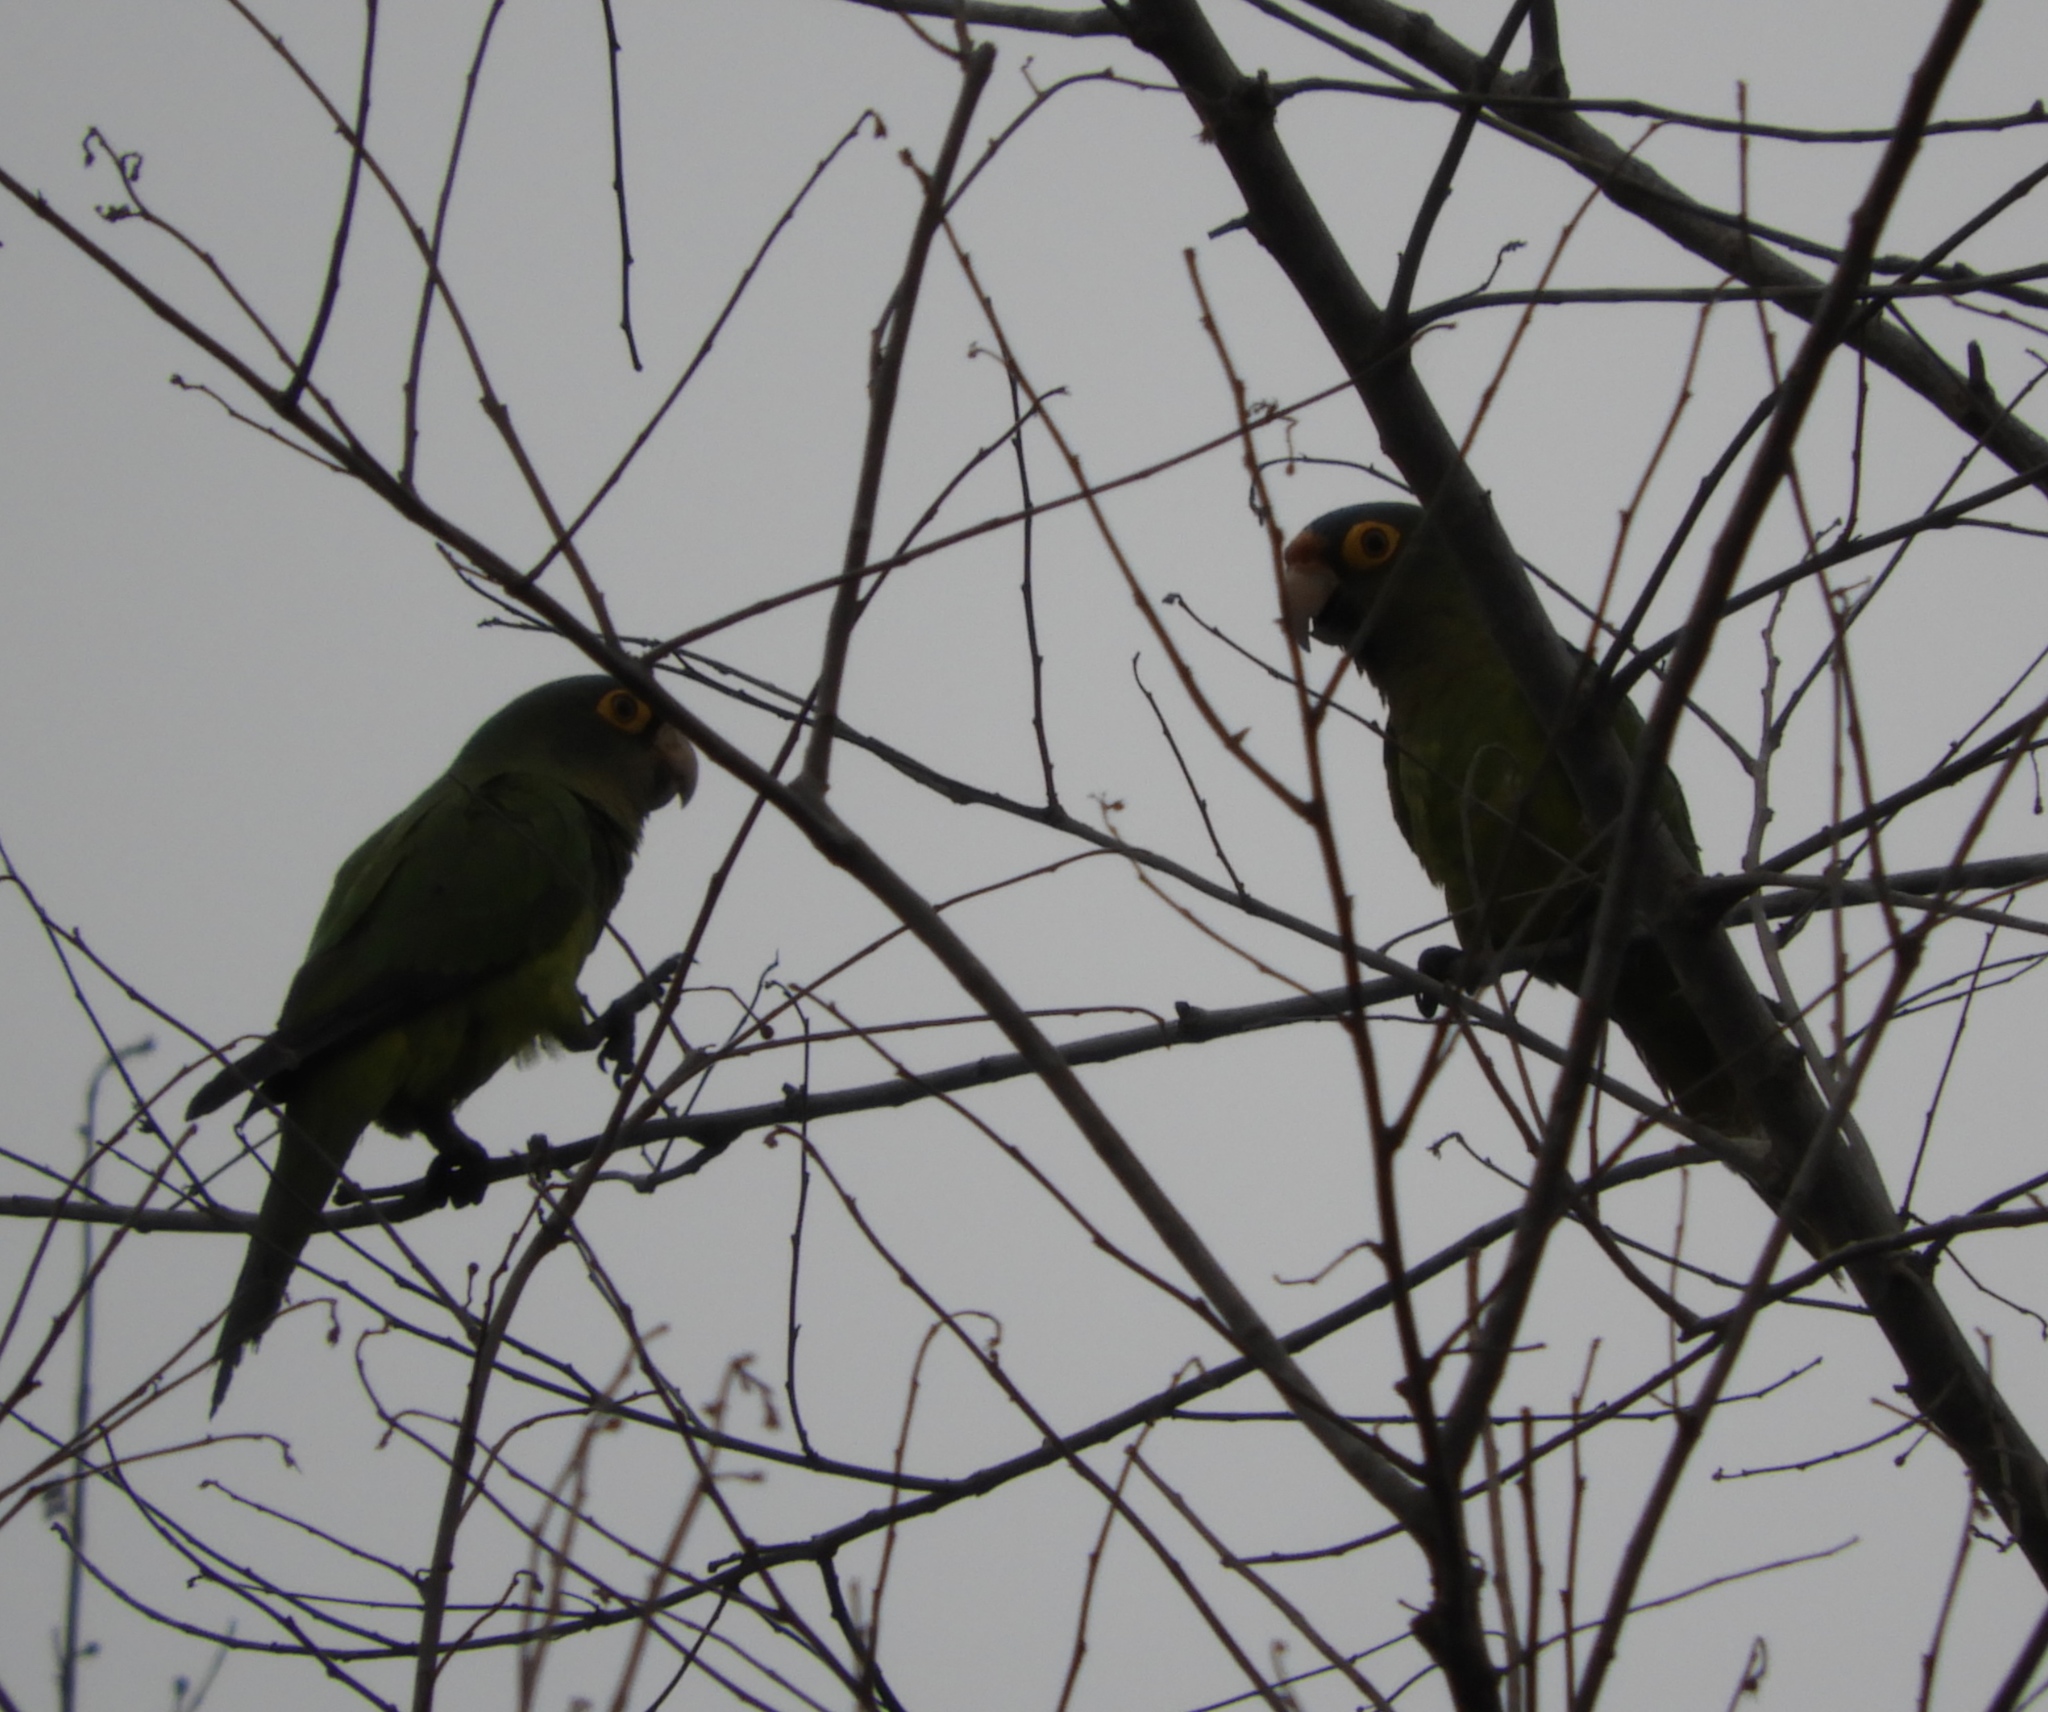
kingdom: Animalia
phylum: Chordata
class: Aves
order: Psittaciformes
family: Psittacidae
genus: Aratinga
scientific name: Aratinga canicularis
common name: Orange-fronted parakeet
